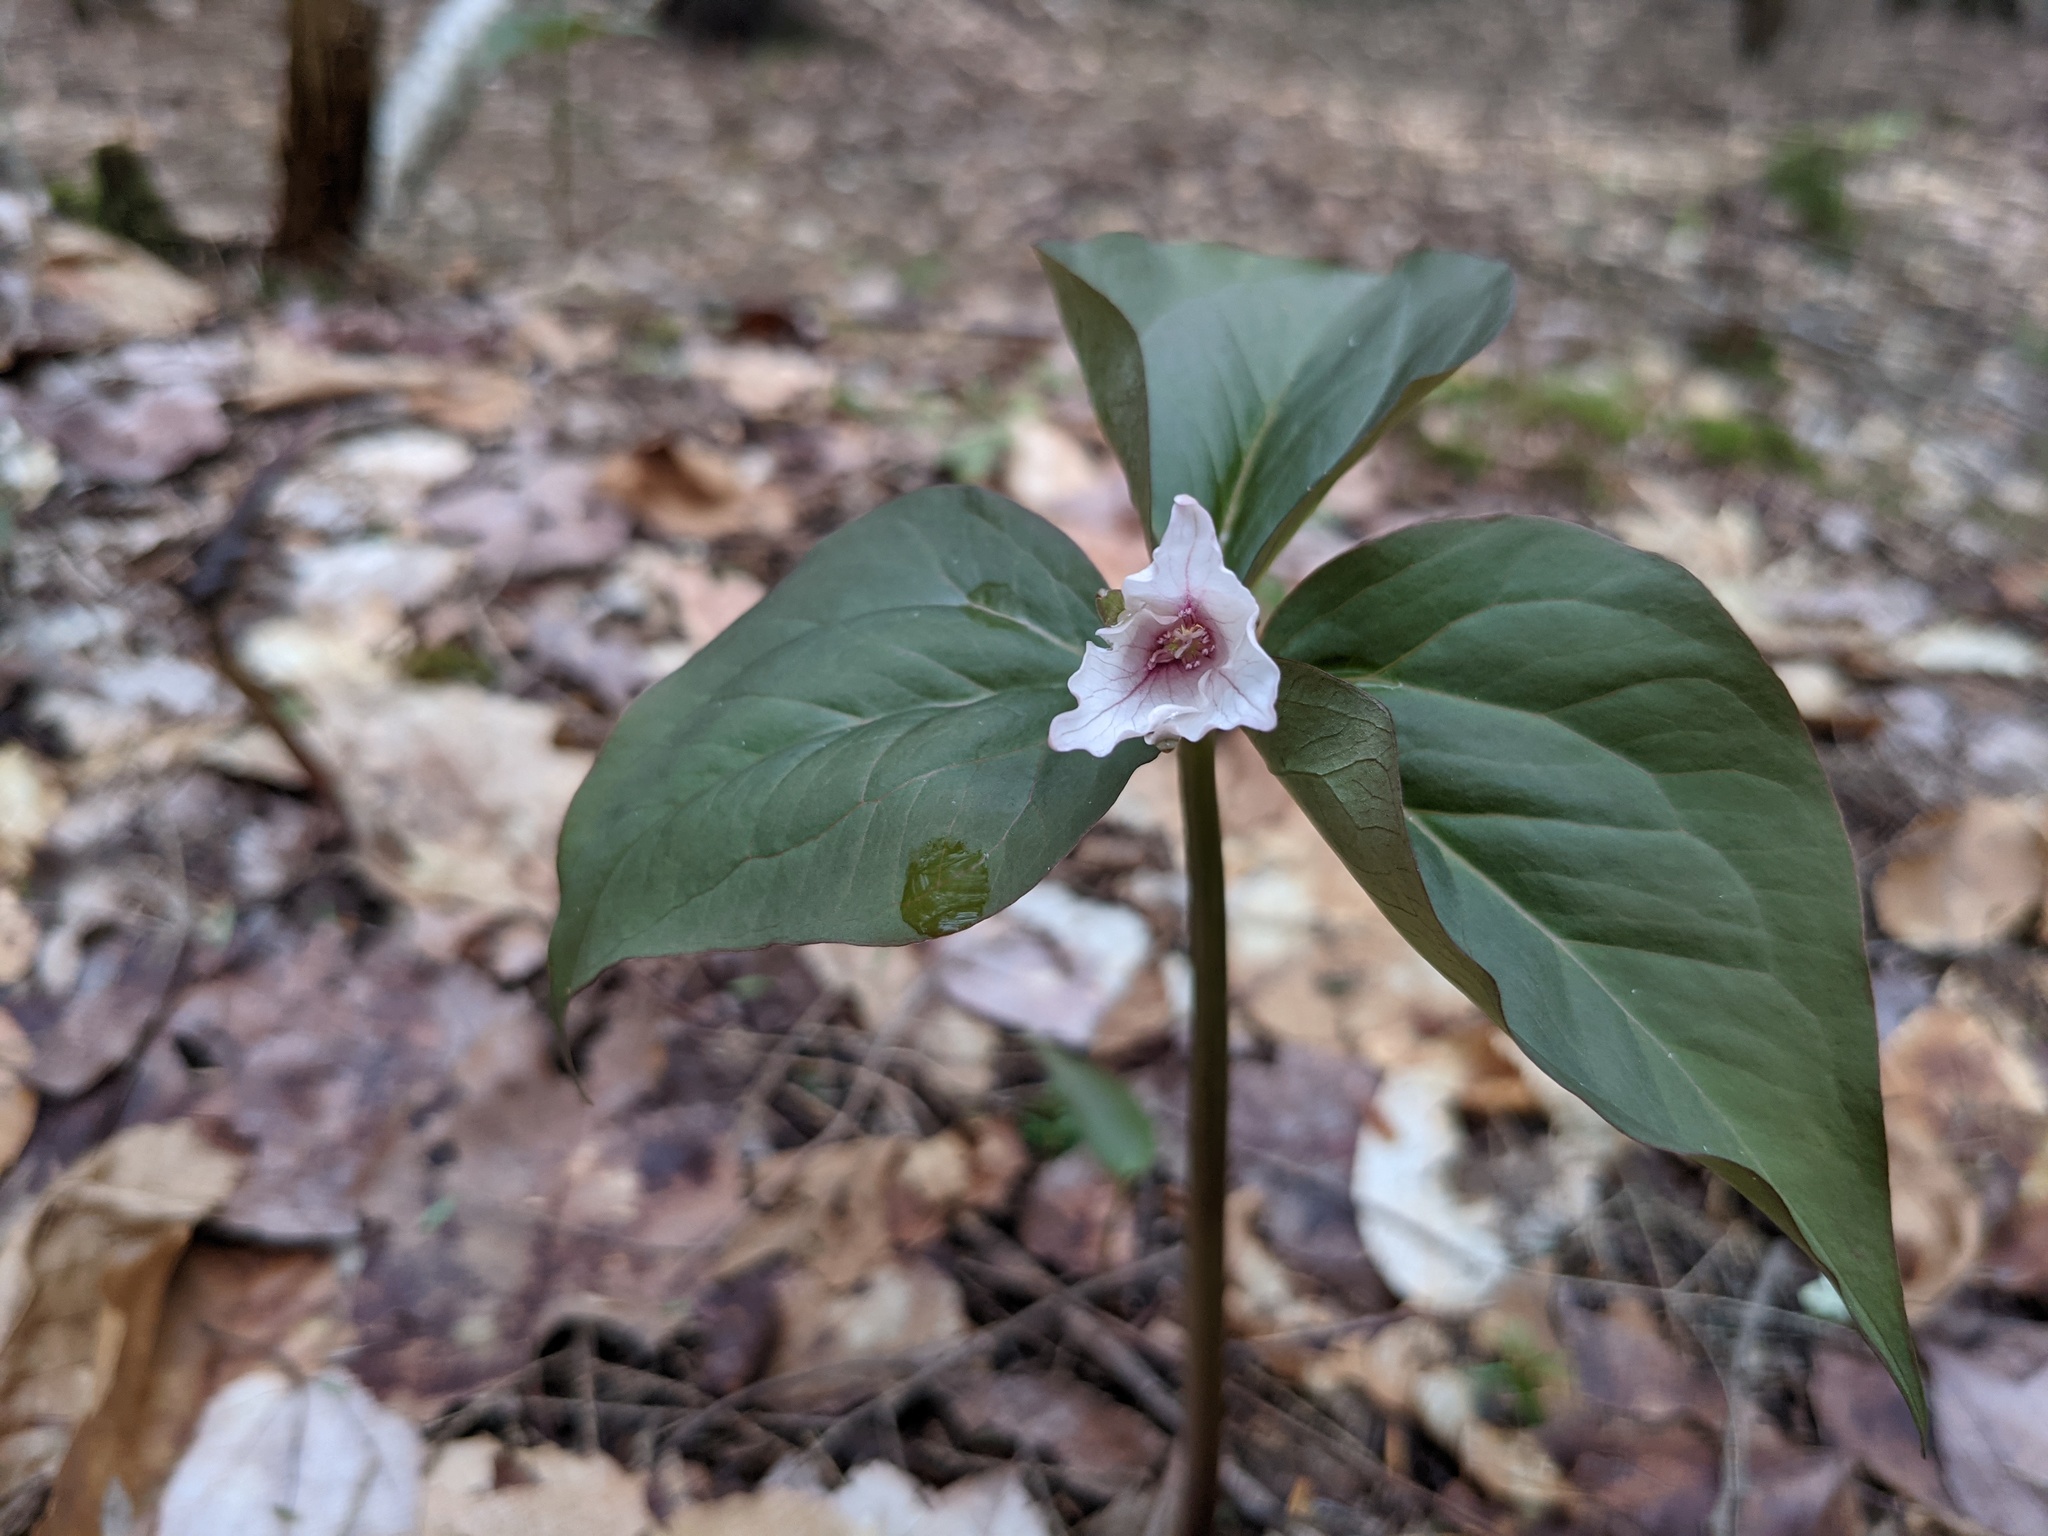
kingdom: Plantae
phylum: Tracheophyta
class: Liliopsida
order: Liliales
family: Melanthiaceae
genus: Trillium
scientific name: Trillium undulatum
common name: Paint trillium
